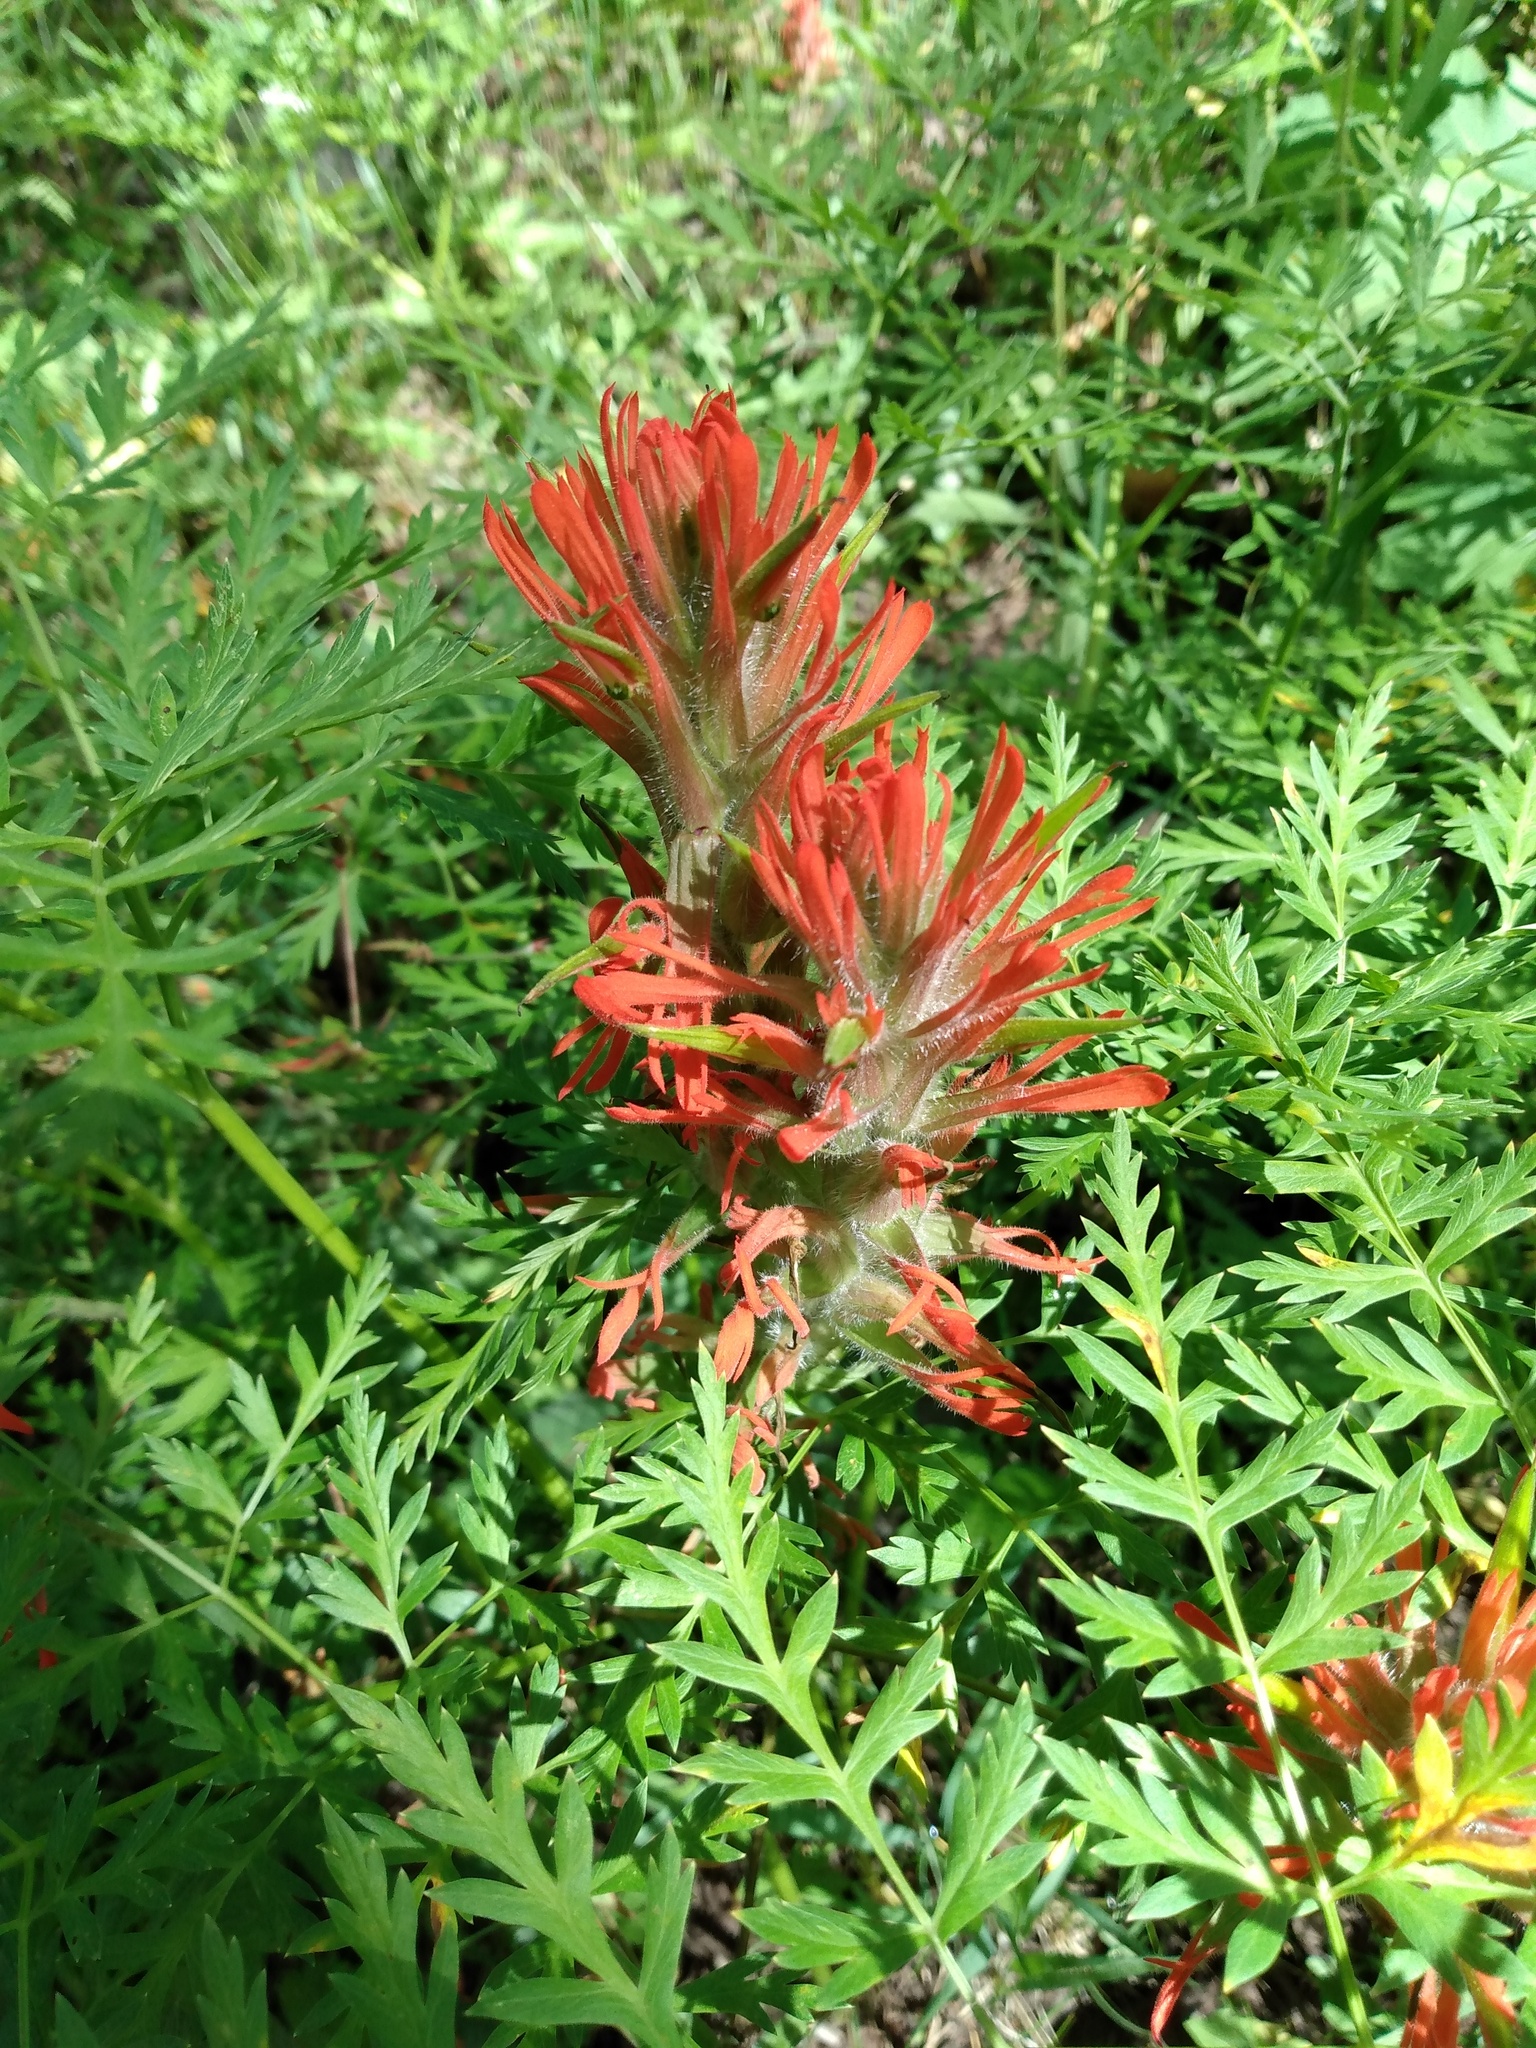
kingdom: Plantae
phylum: Tracheophyta
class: Magnoliopsida
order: Lamiales
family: Orobanchaceae
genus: Castilleja
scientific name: Castilleja miniata
